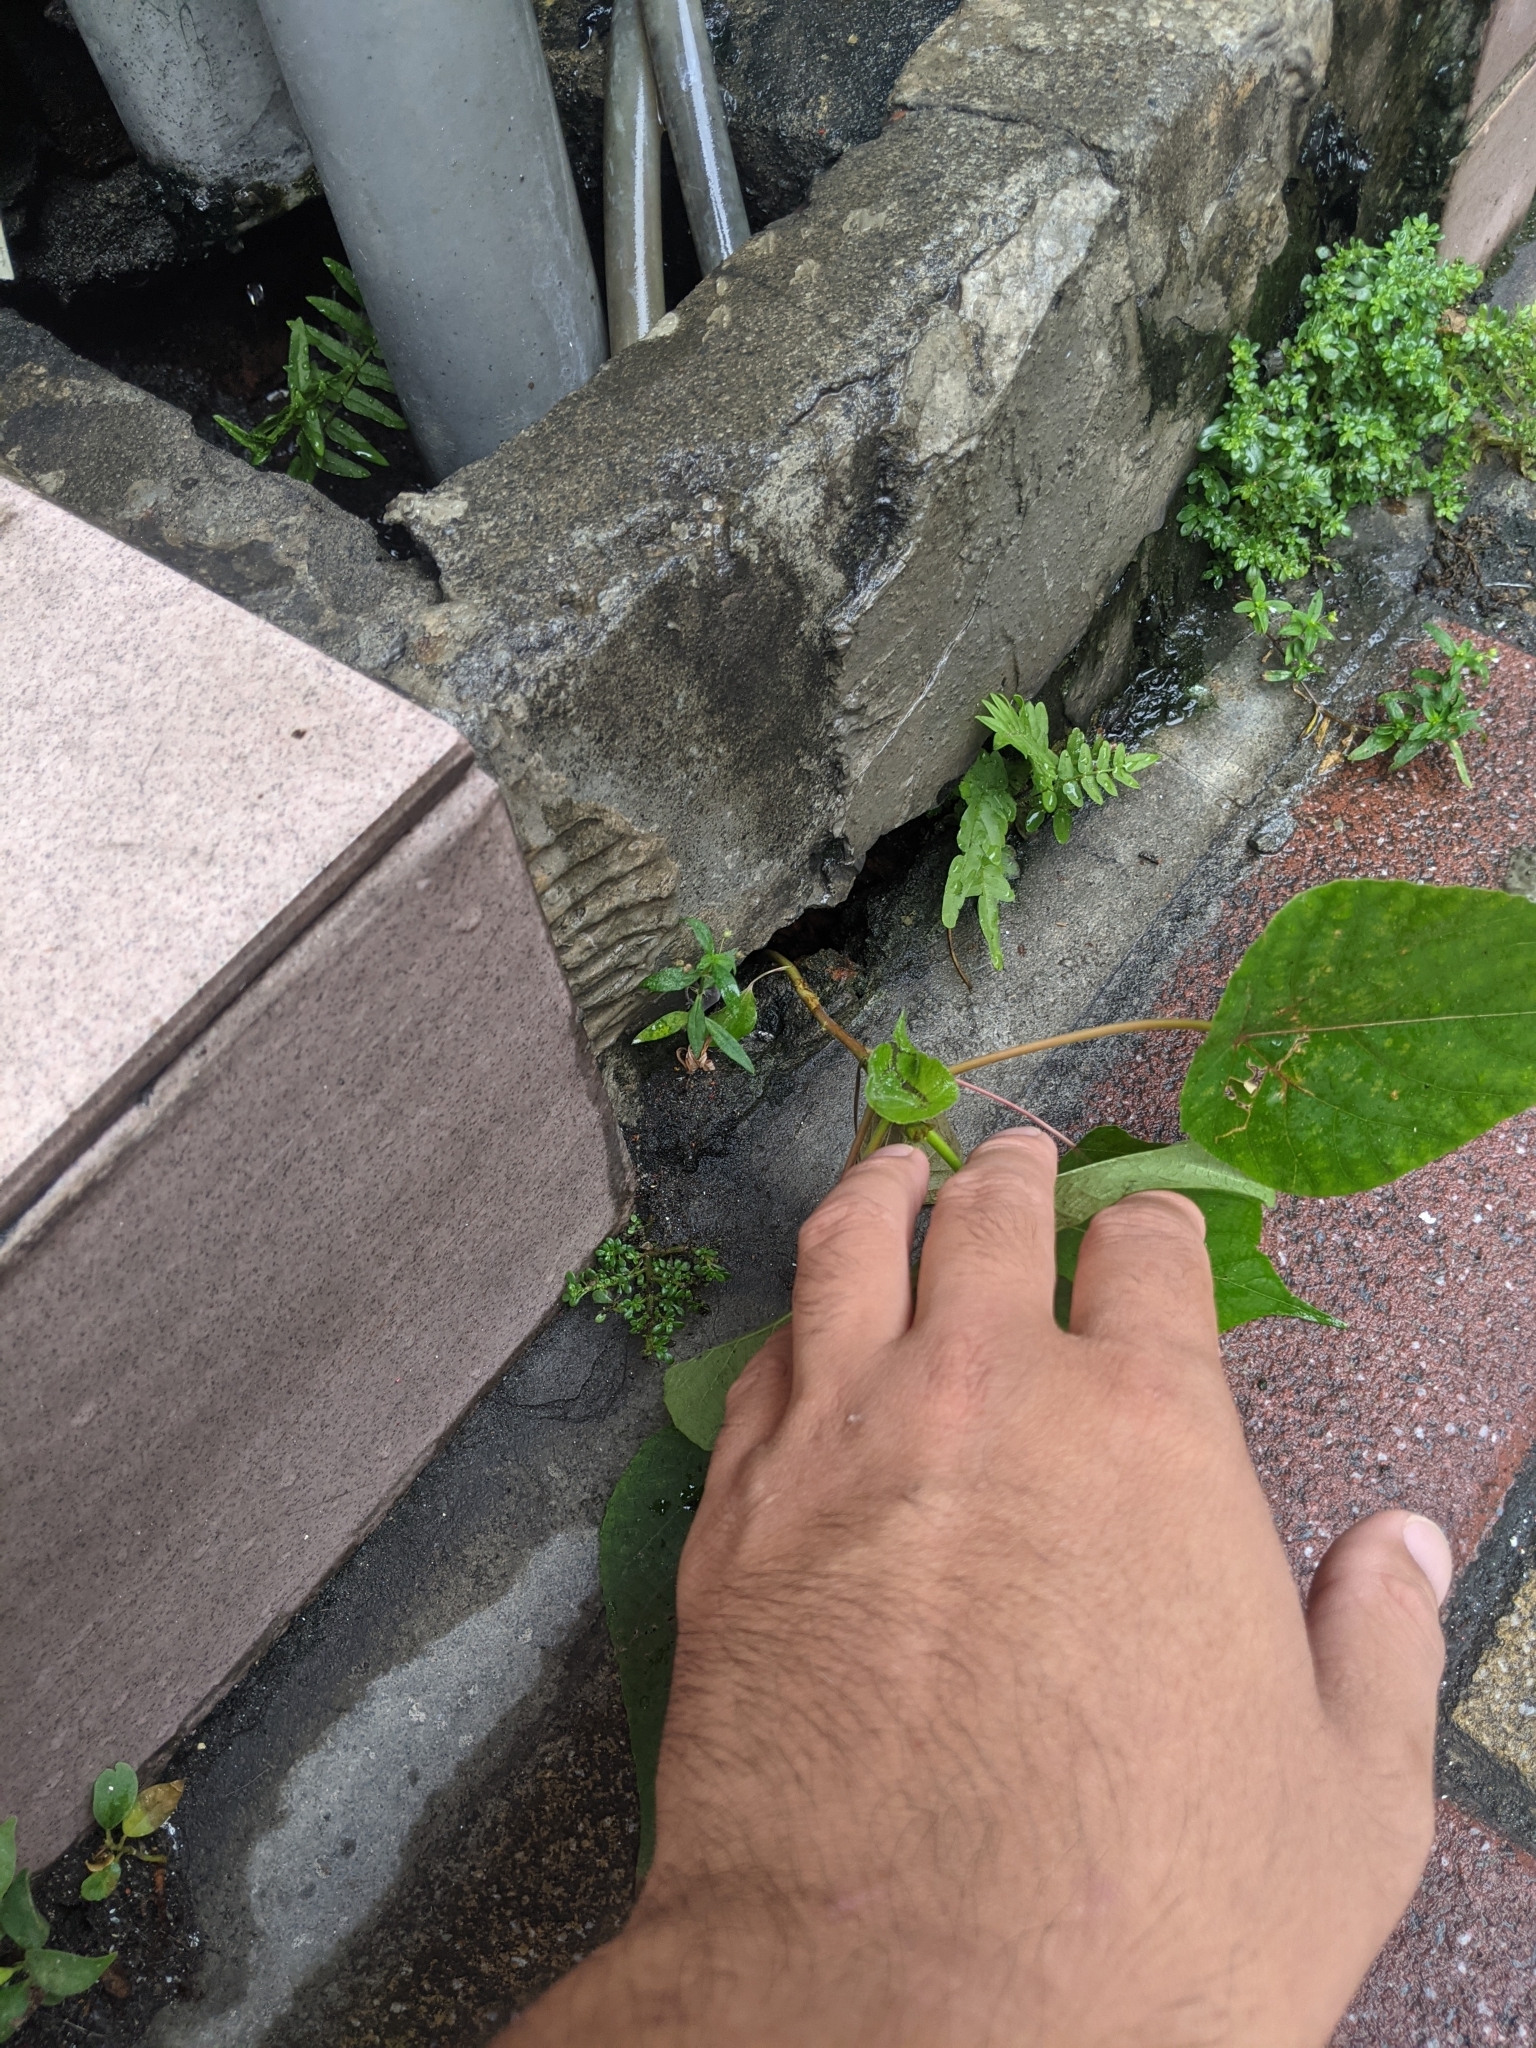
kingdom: Plantae
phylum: Tracheophyta
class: Magnoliopsida
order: Malpighiales
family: Euphorbiaceae
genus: Macaranga
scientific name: Macaranga tanarius
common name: Parasol leaf tree
